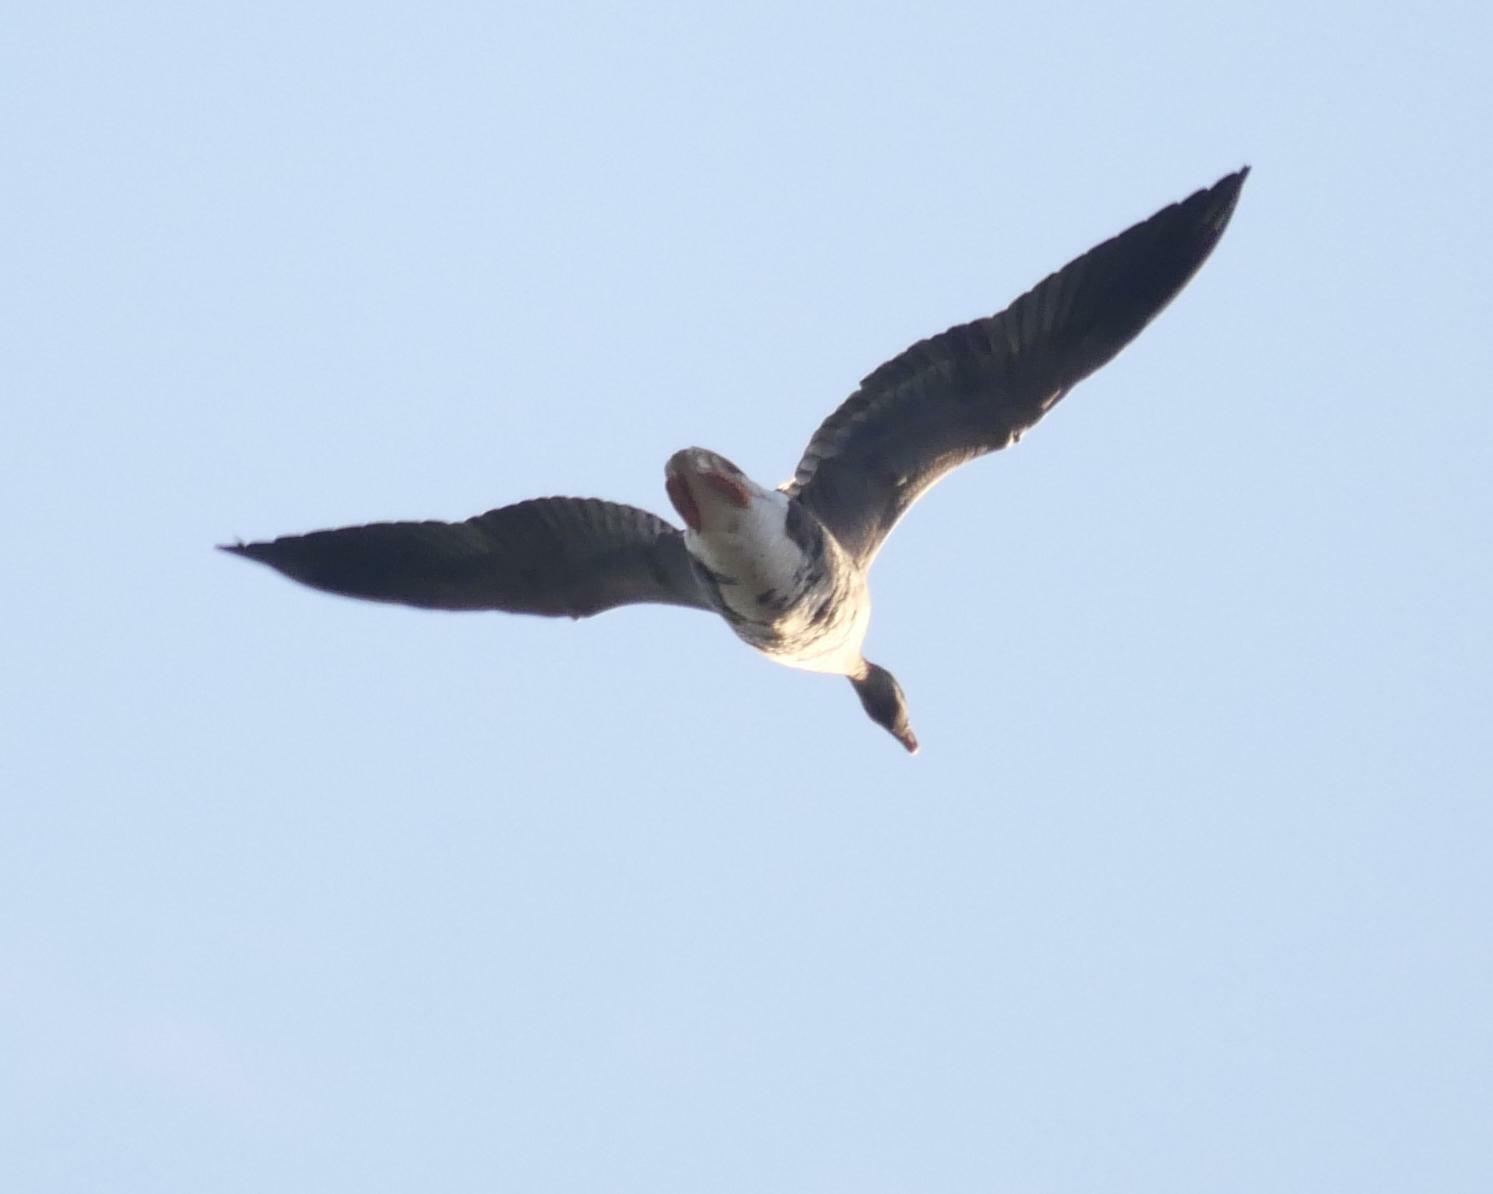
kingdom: Animalia
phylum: Chordata
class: Aves
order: Anseriformes
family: Anatidae
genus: Anser
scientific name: Anser albifrons
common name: Greater white-fronted goose
